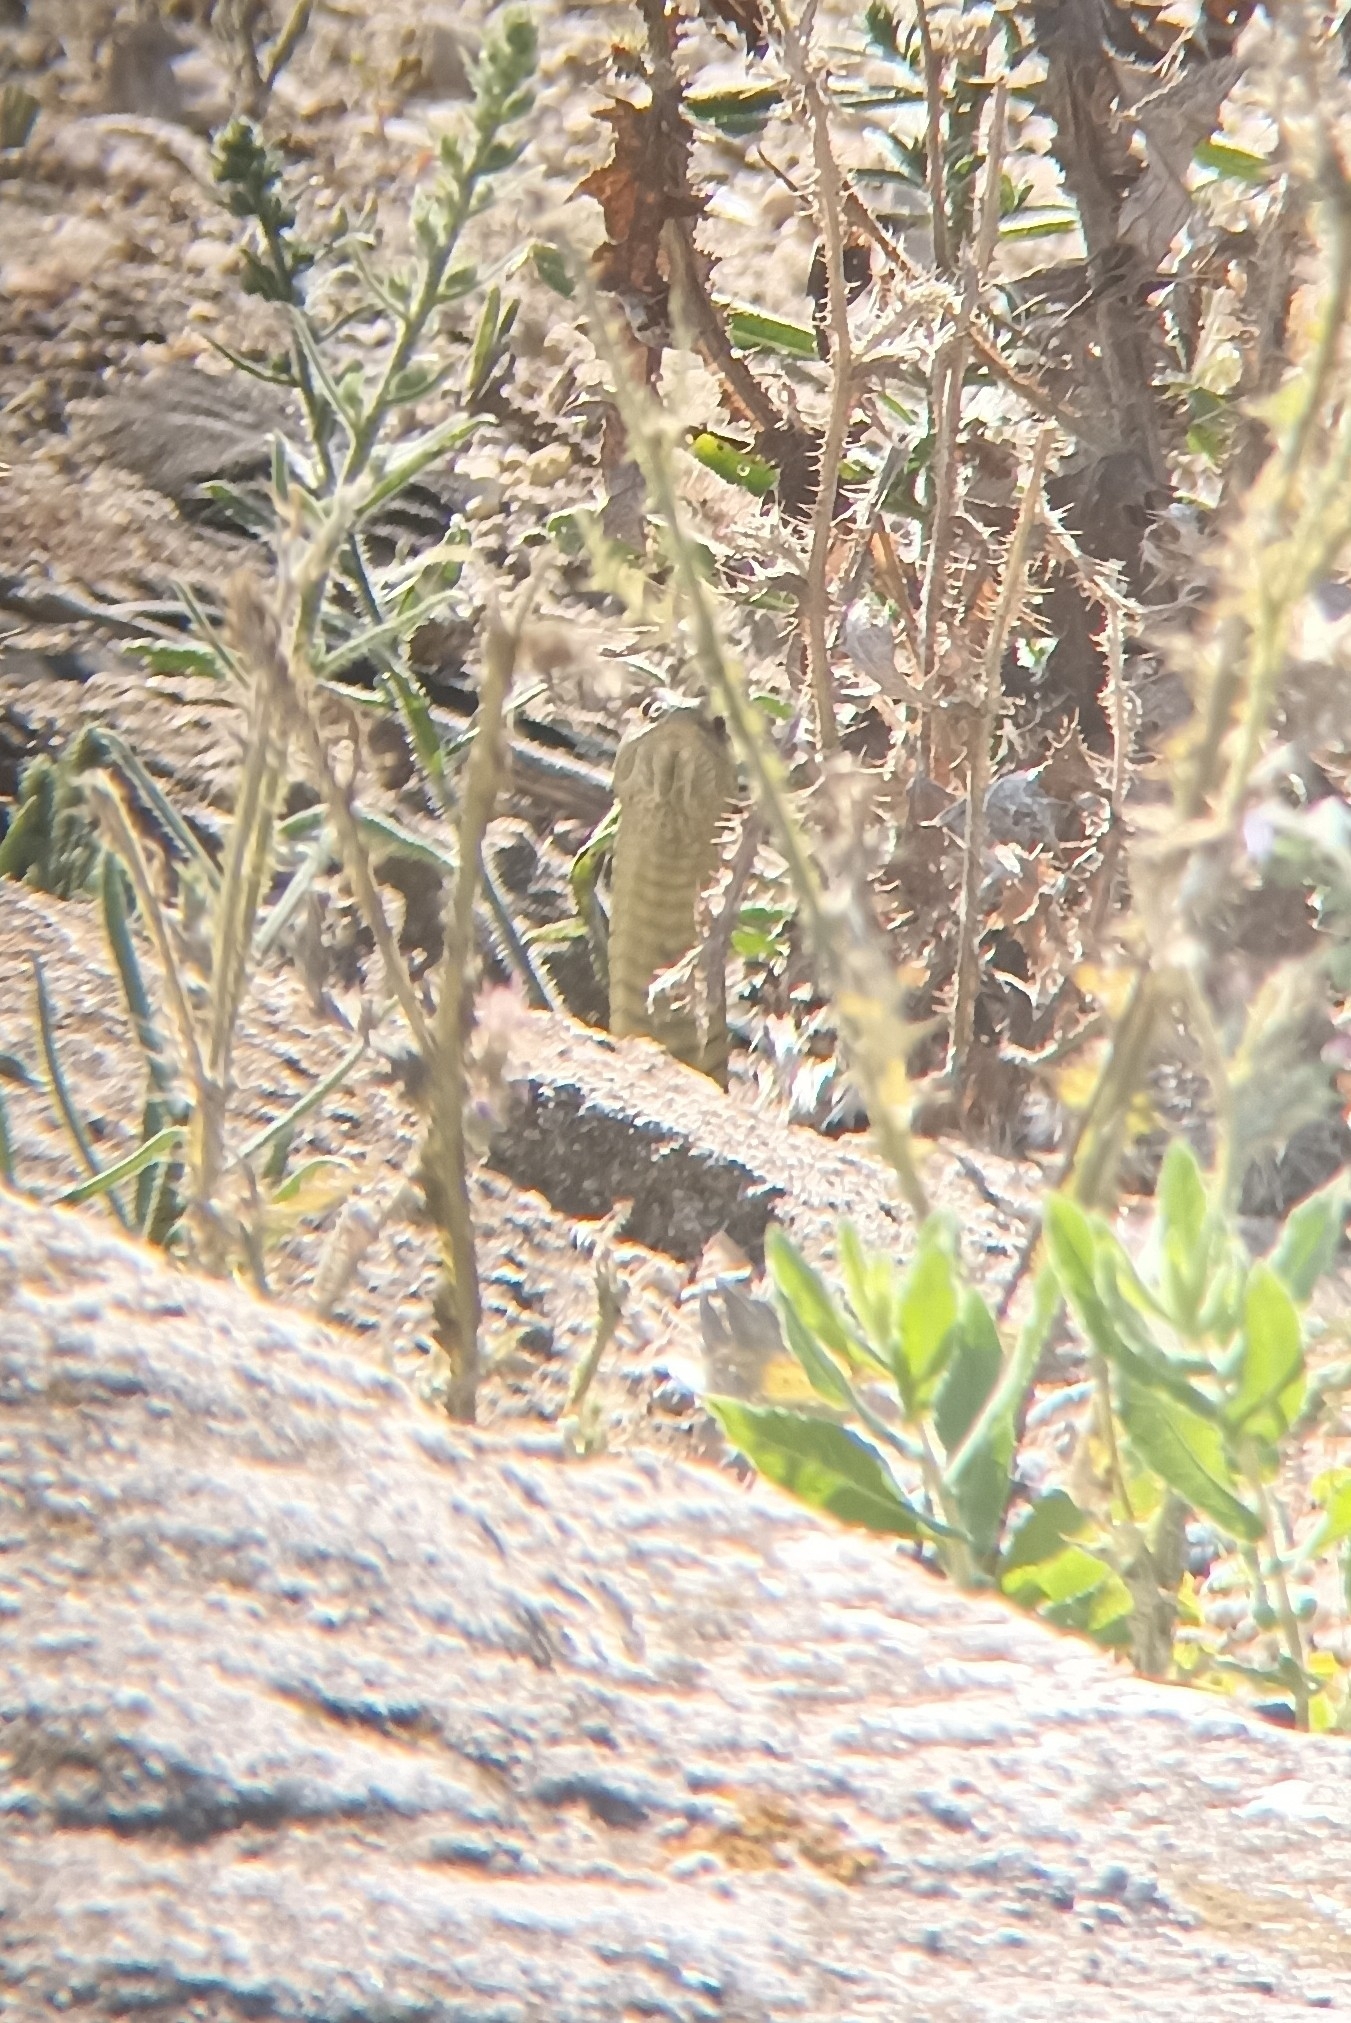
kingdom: Animalia
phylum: Chordata
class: Squamata
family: Psammophiidae
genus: Malpolon
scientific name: Malpolon monspessulanus
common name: Montpellier snake
